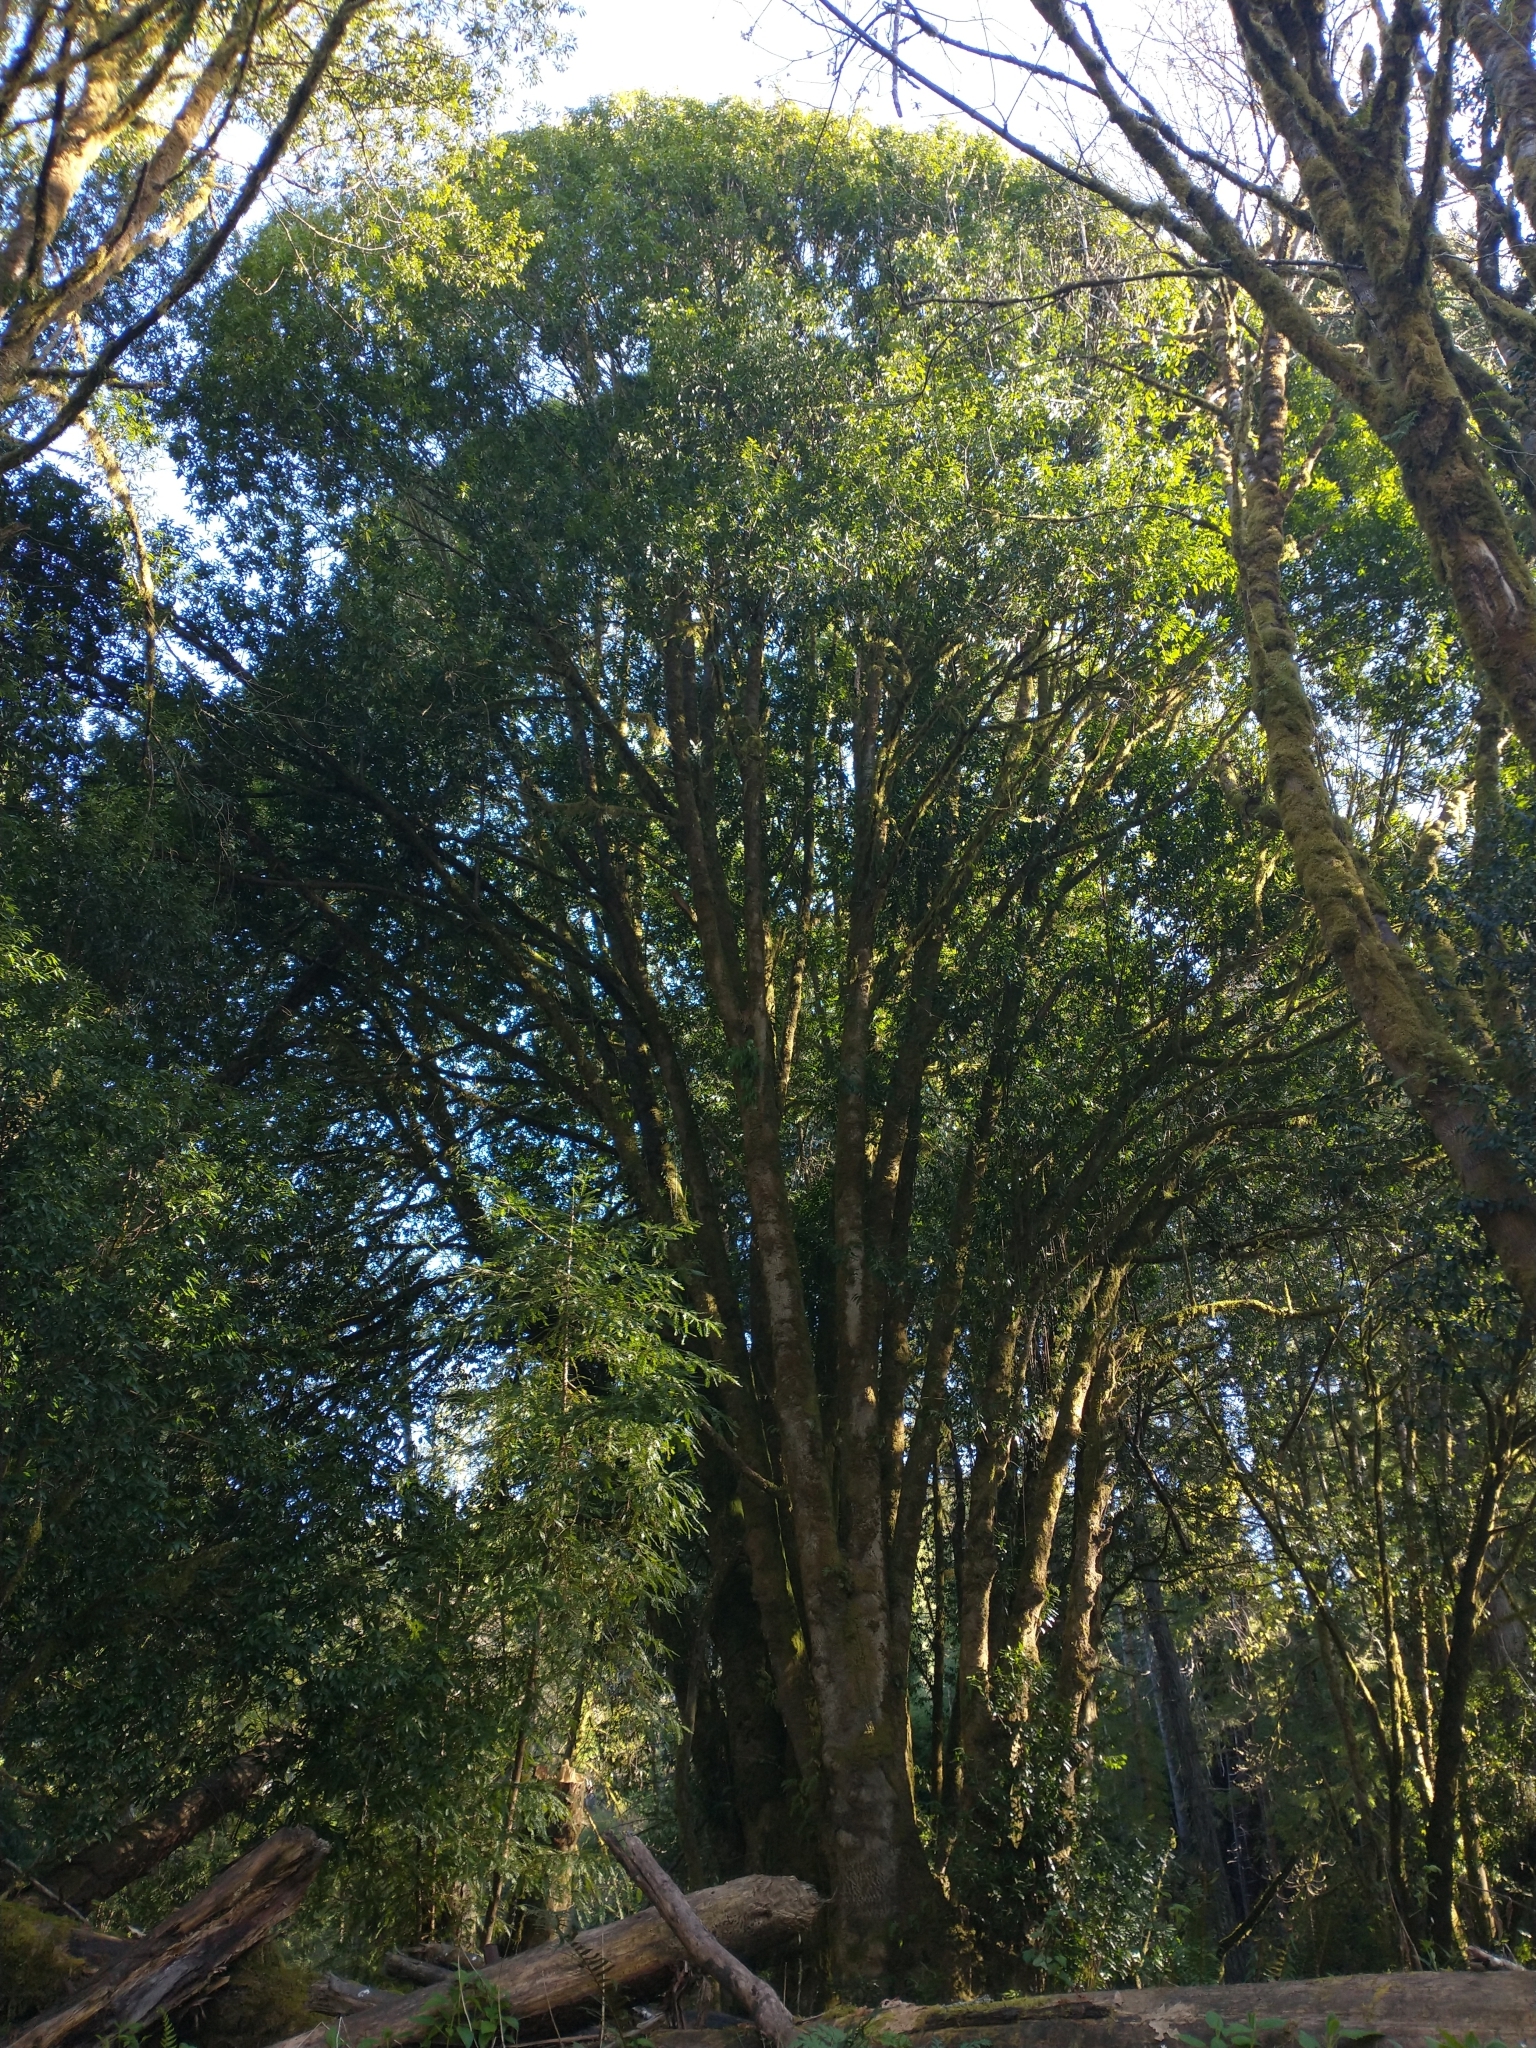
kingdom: Plantae
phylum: Tracheophyta
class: Magnoliopsida
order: Laurales
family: Lauraceae
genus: Umbellularia
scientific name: Umbellularia californica
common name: California bay
